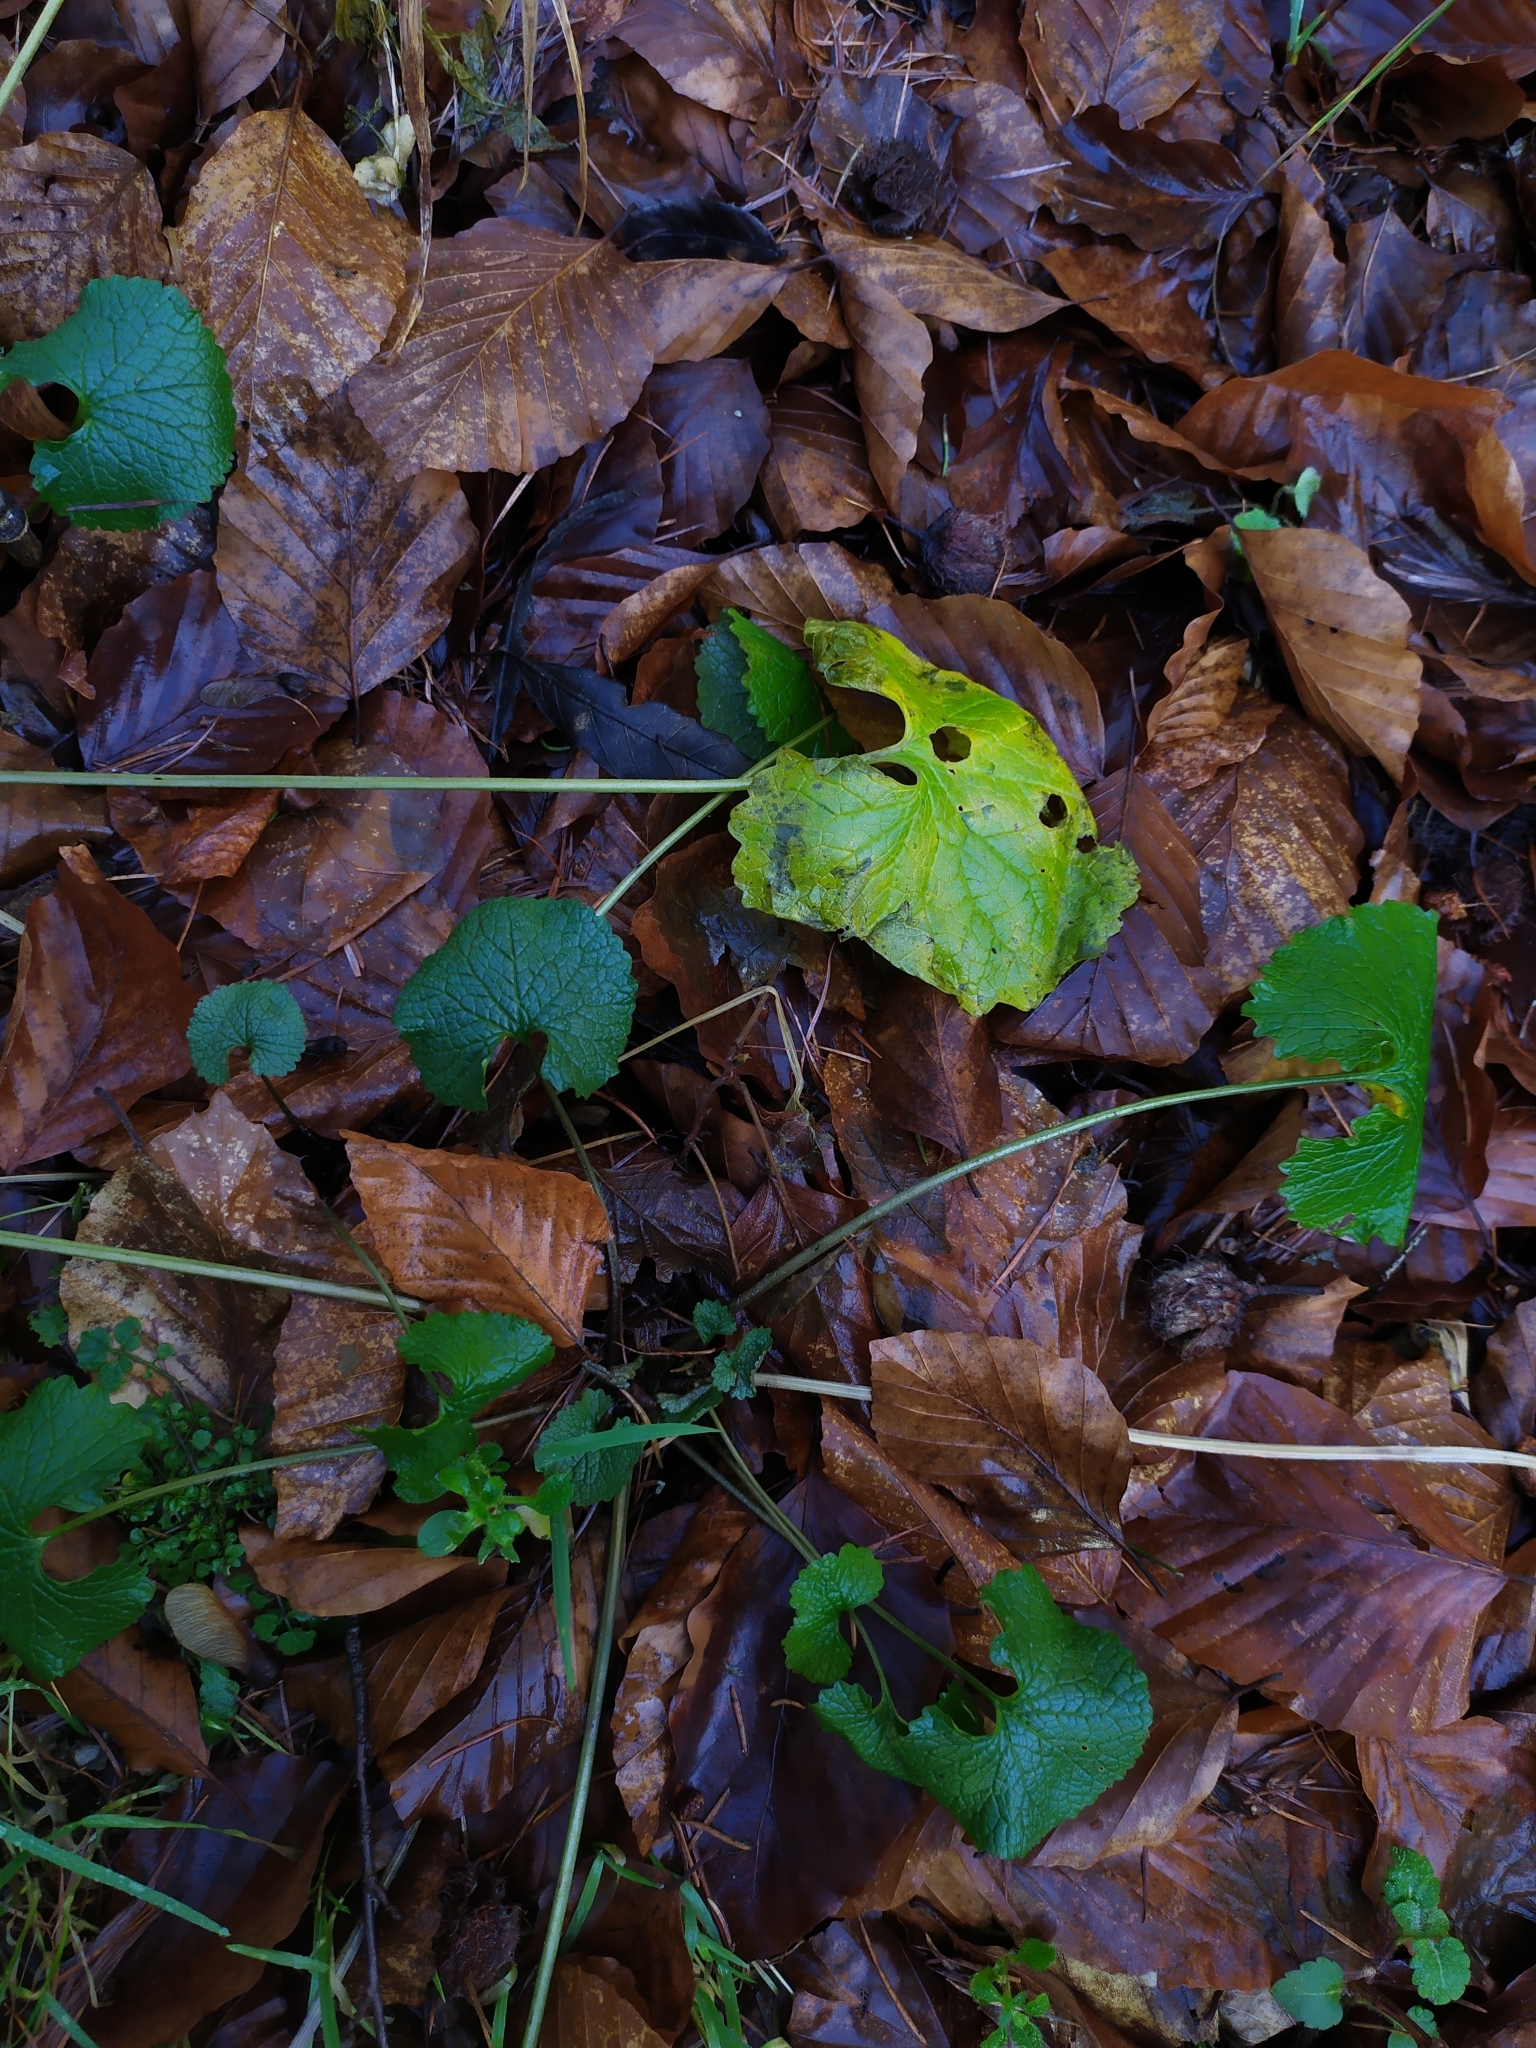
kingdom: Plantae
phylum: Tracheophyta
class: Magnoliopsida
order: Brassicales
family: Brassicaceae
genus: Alliaria
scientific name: Alliaria petiolata
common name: Garlic mustard
